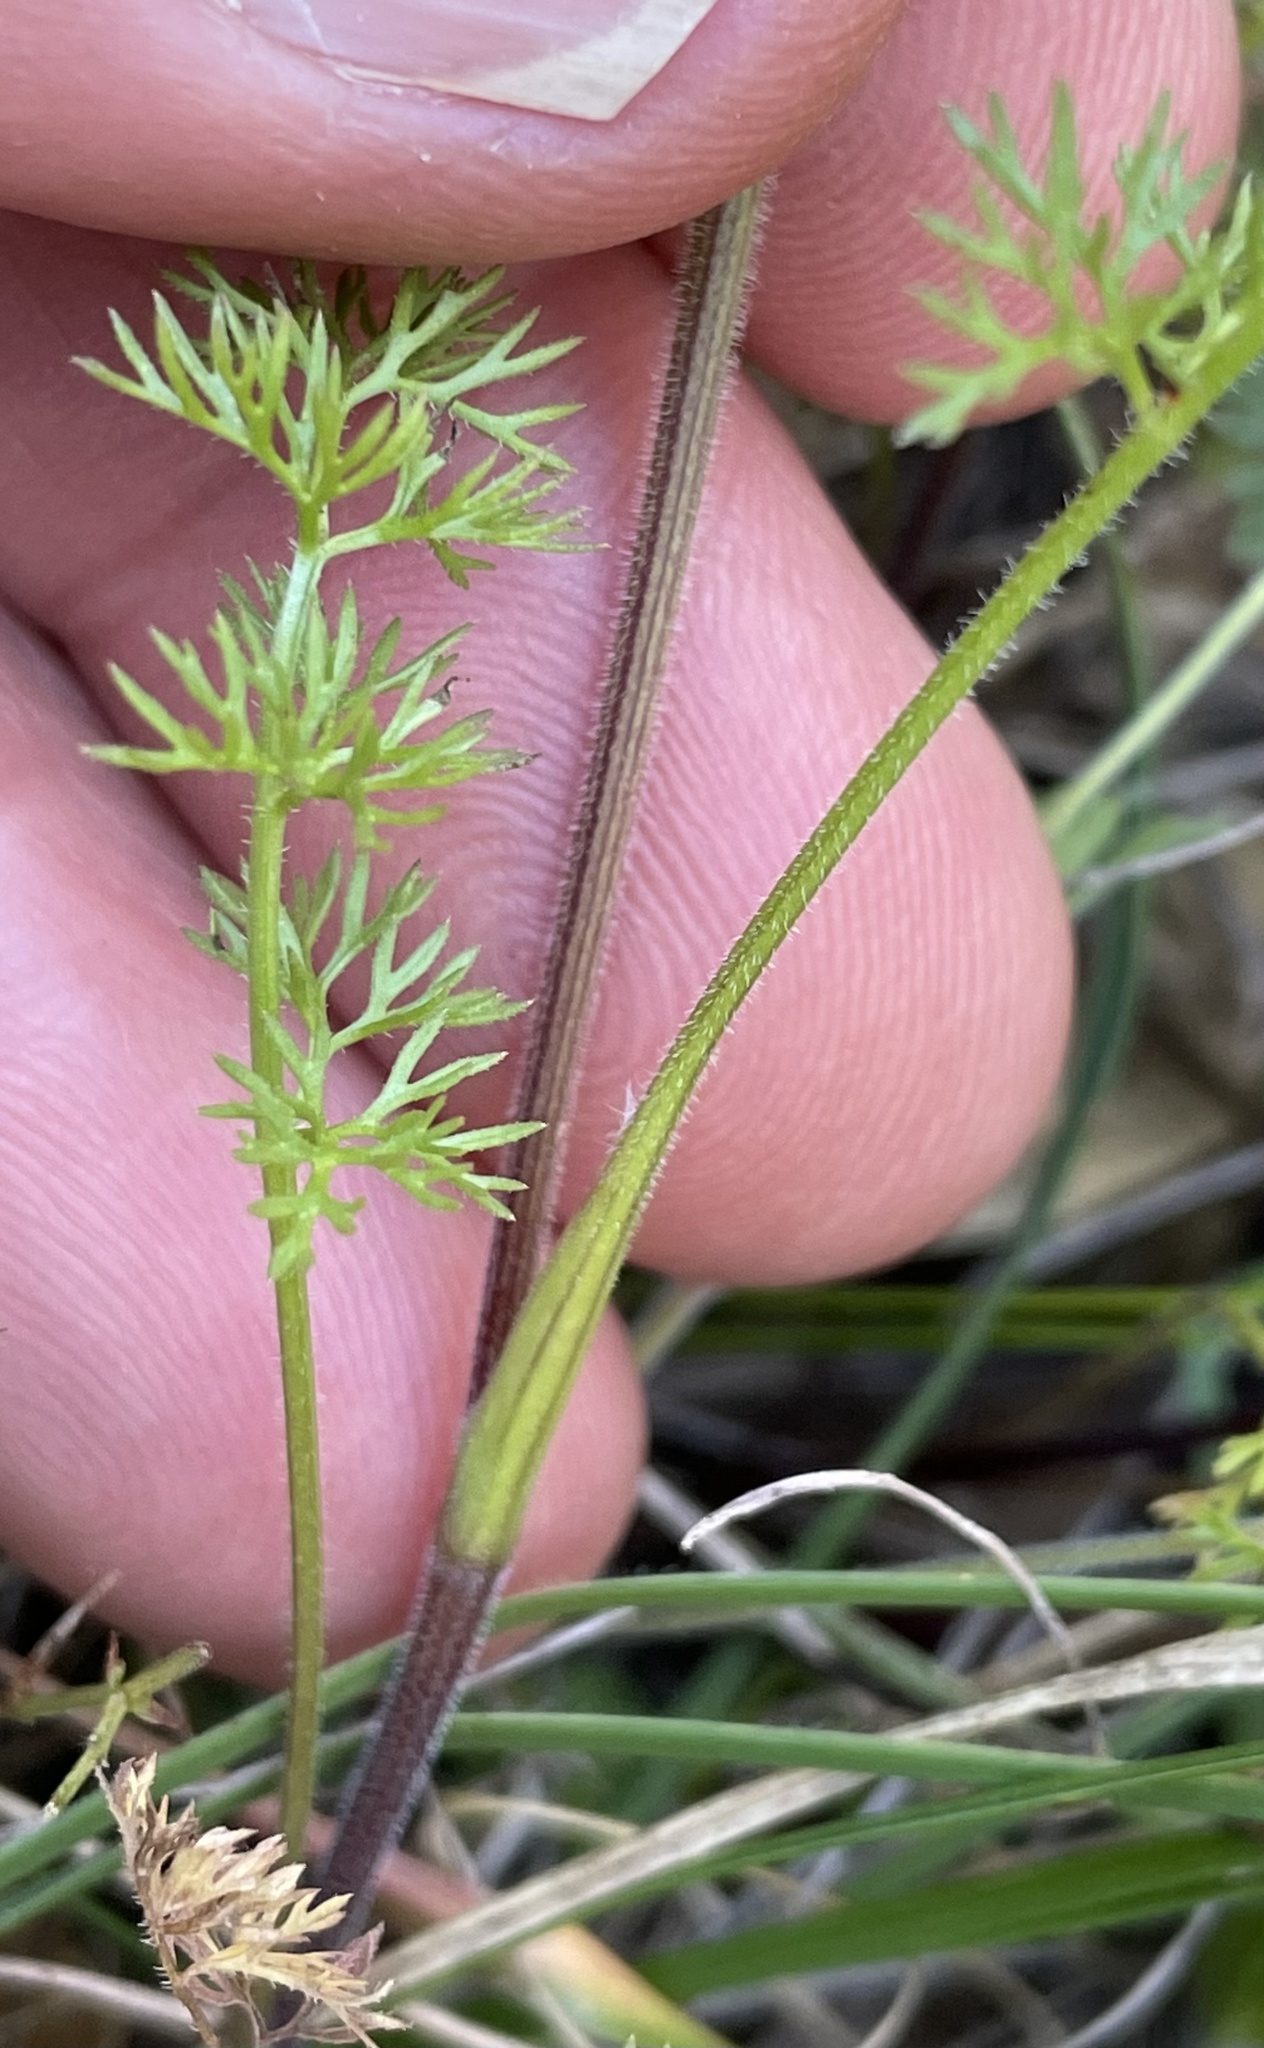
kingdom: Plantae
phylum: Tracheophyta
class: Magnoliopsida
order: Apiales
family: Apiaceae
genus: Scandix
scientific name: Scandix pecten-veneris
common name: Shepherd's-needle
